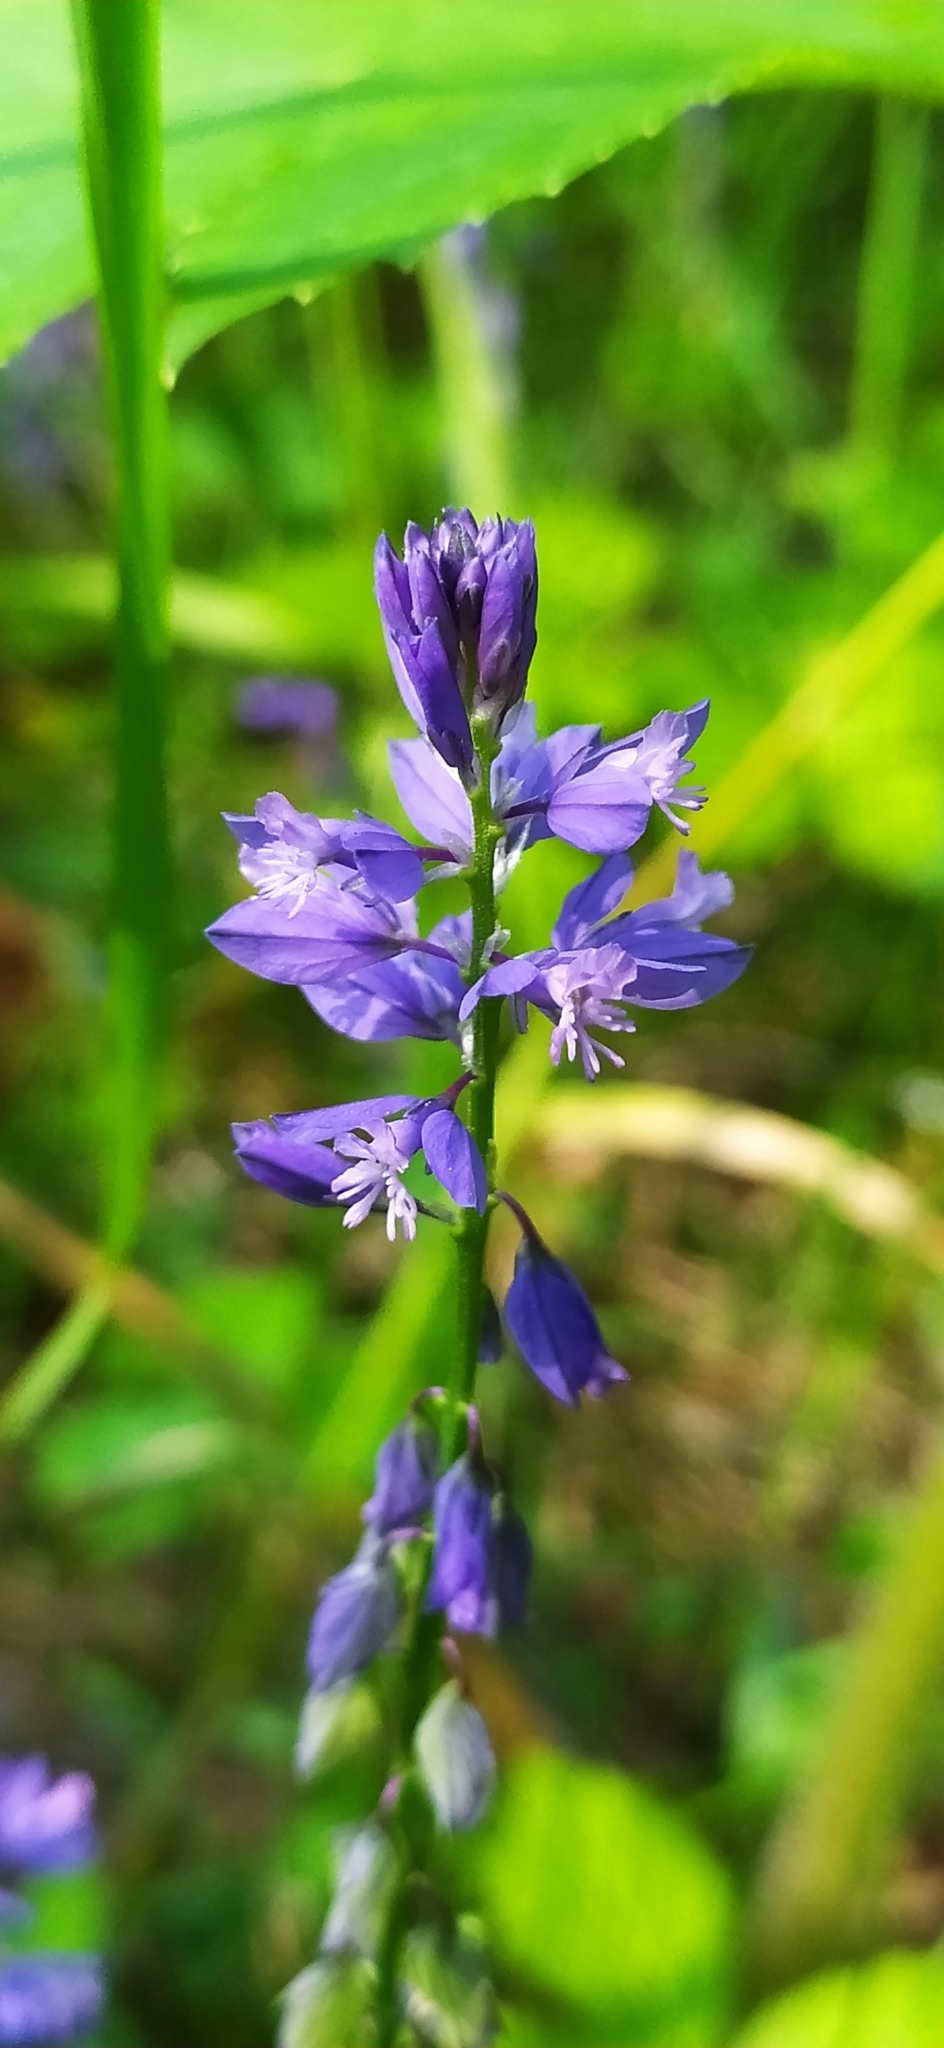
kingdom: Plantae
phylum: Tracheophyta
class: Magnoliopsida
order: Fabales
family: Polygalaceae
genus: Polygala
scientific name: Polygala comosa
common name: Tufted milkwort
